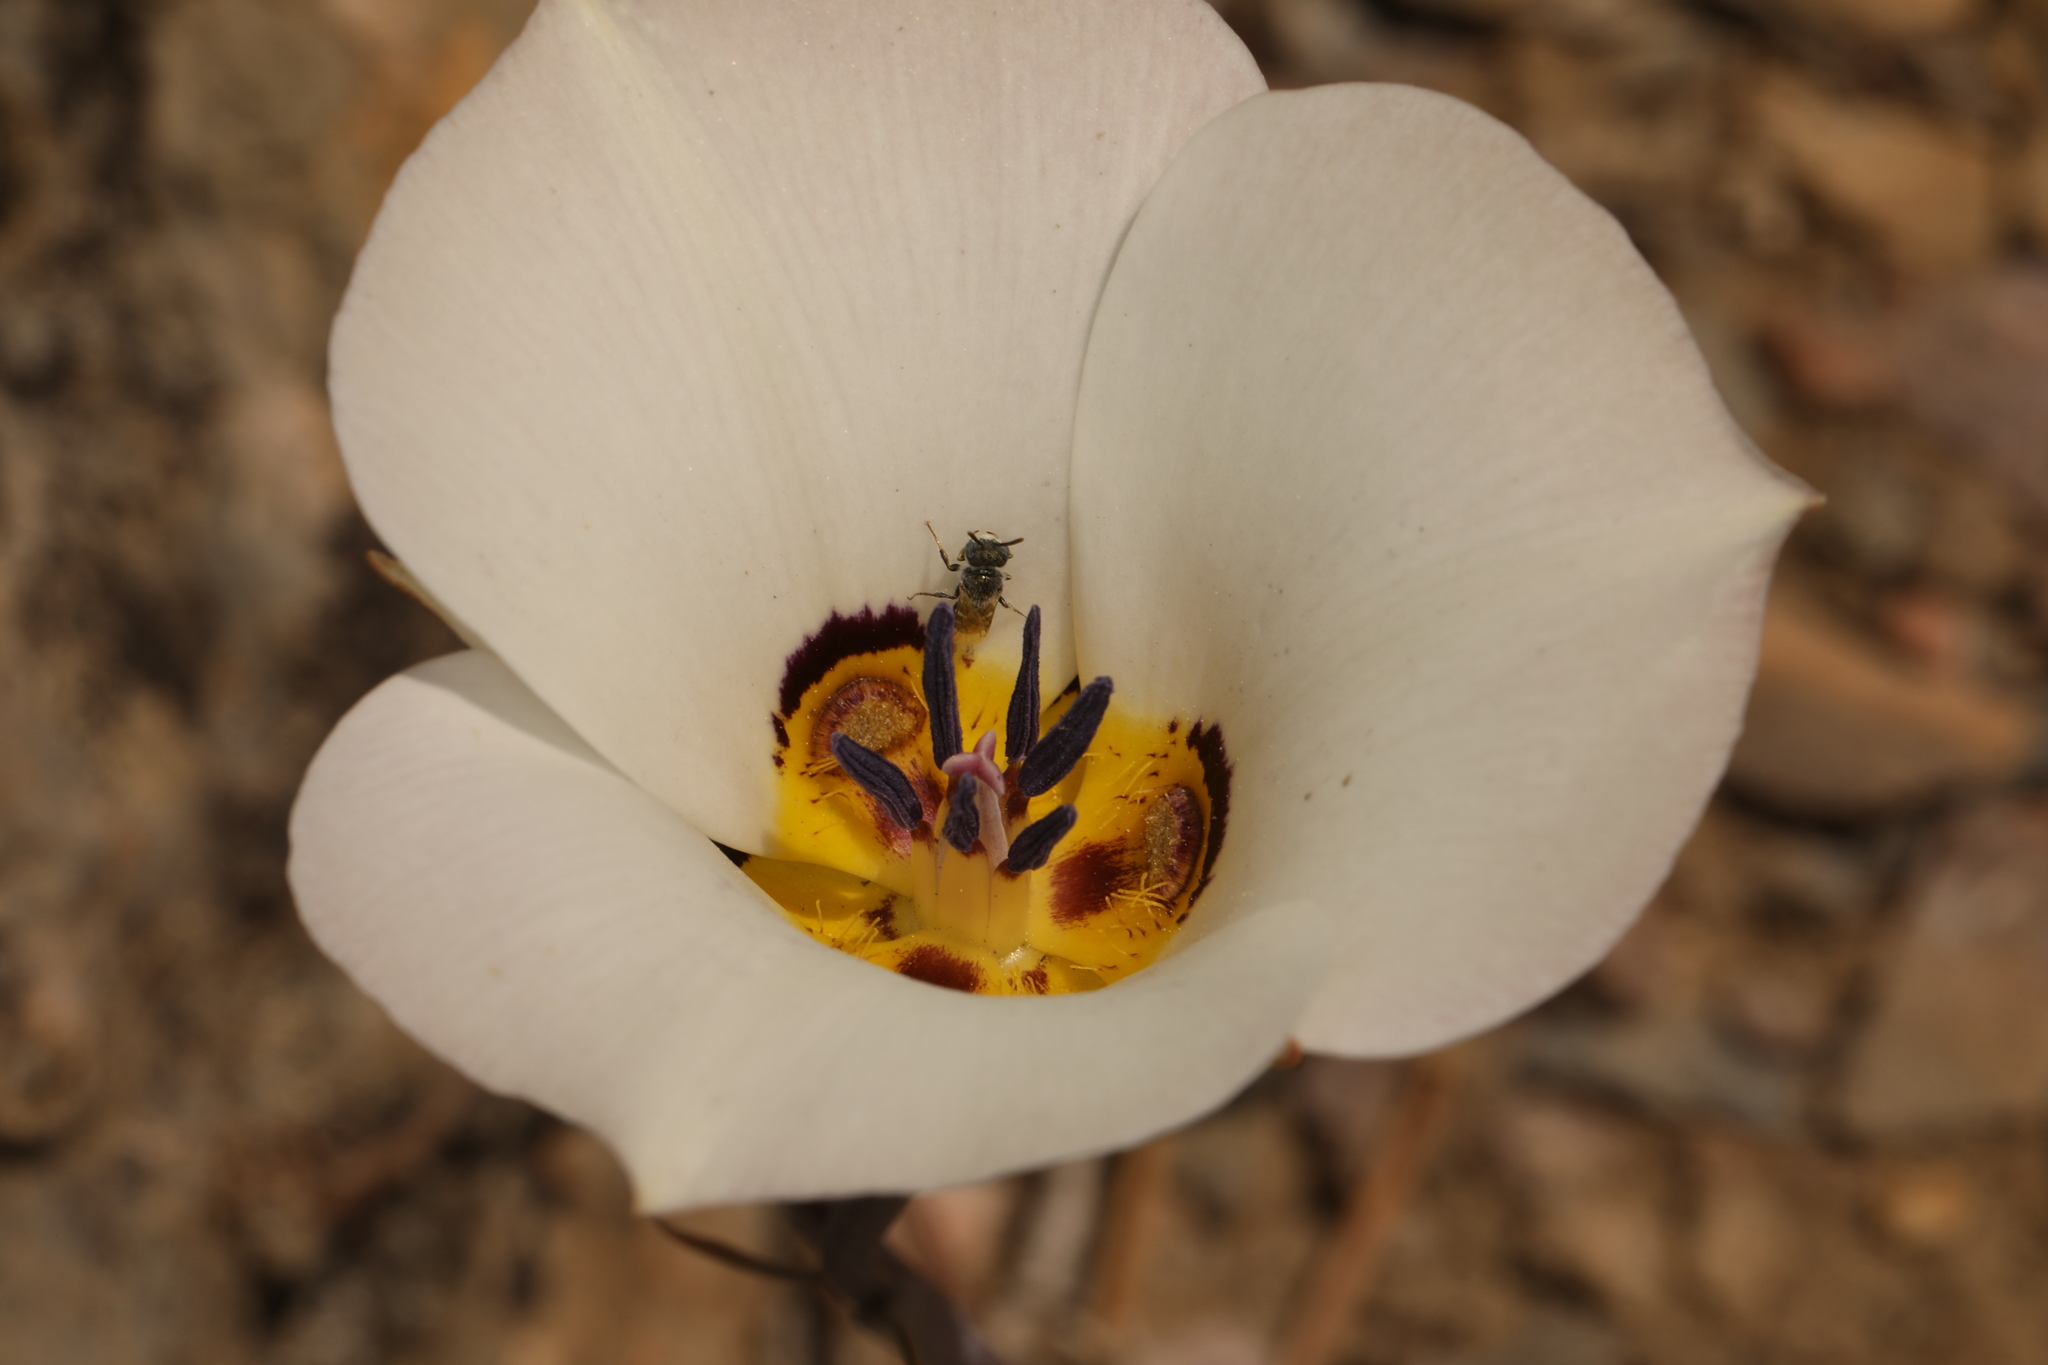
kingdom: Plantae
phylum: Tracheophyta
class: Liliopsida
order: Liliales
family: Liliaceae
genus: Calochortus
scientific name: Calochortus bruneaunis
